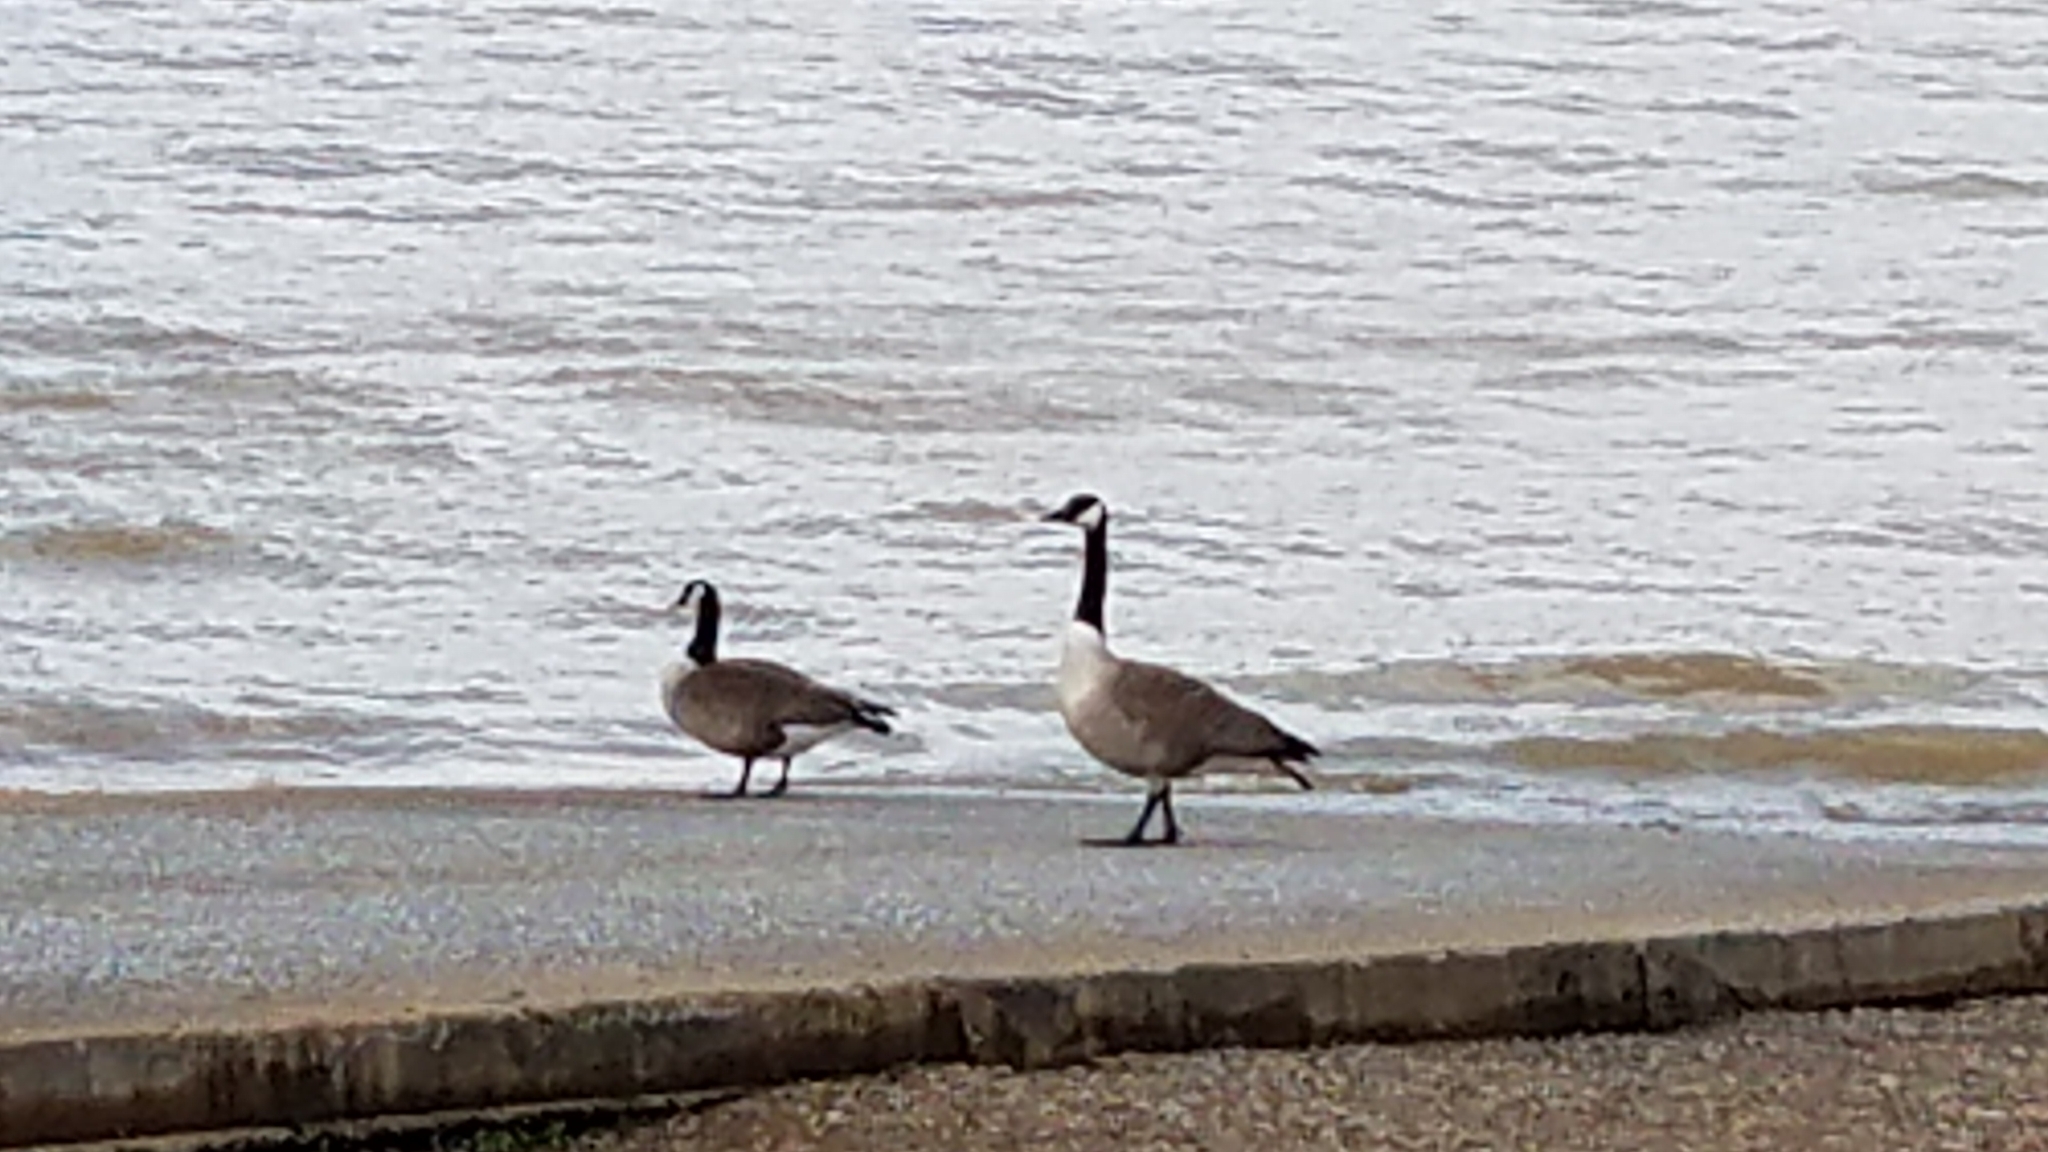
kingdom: Animalia
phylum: Chordata
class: Aves
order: Anseriformes
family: Anatidae
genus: Branta
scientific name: Branta canadensis
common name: Canada goose
